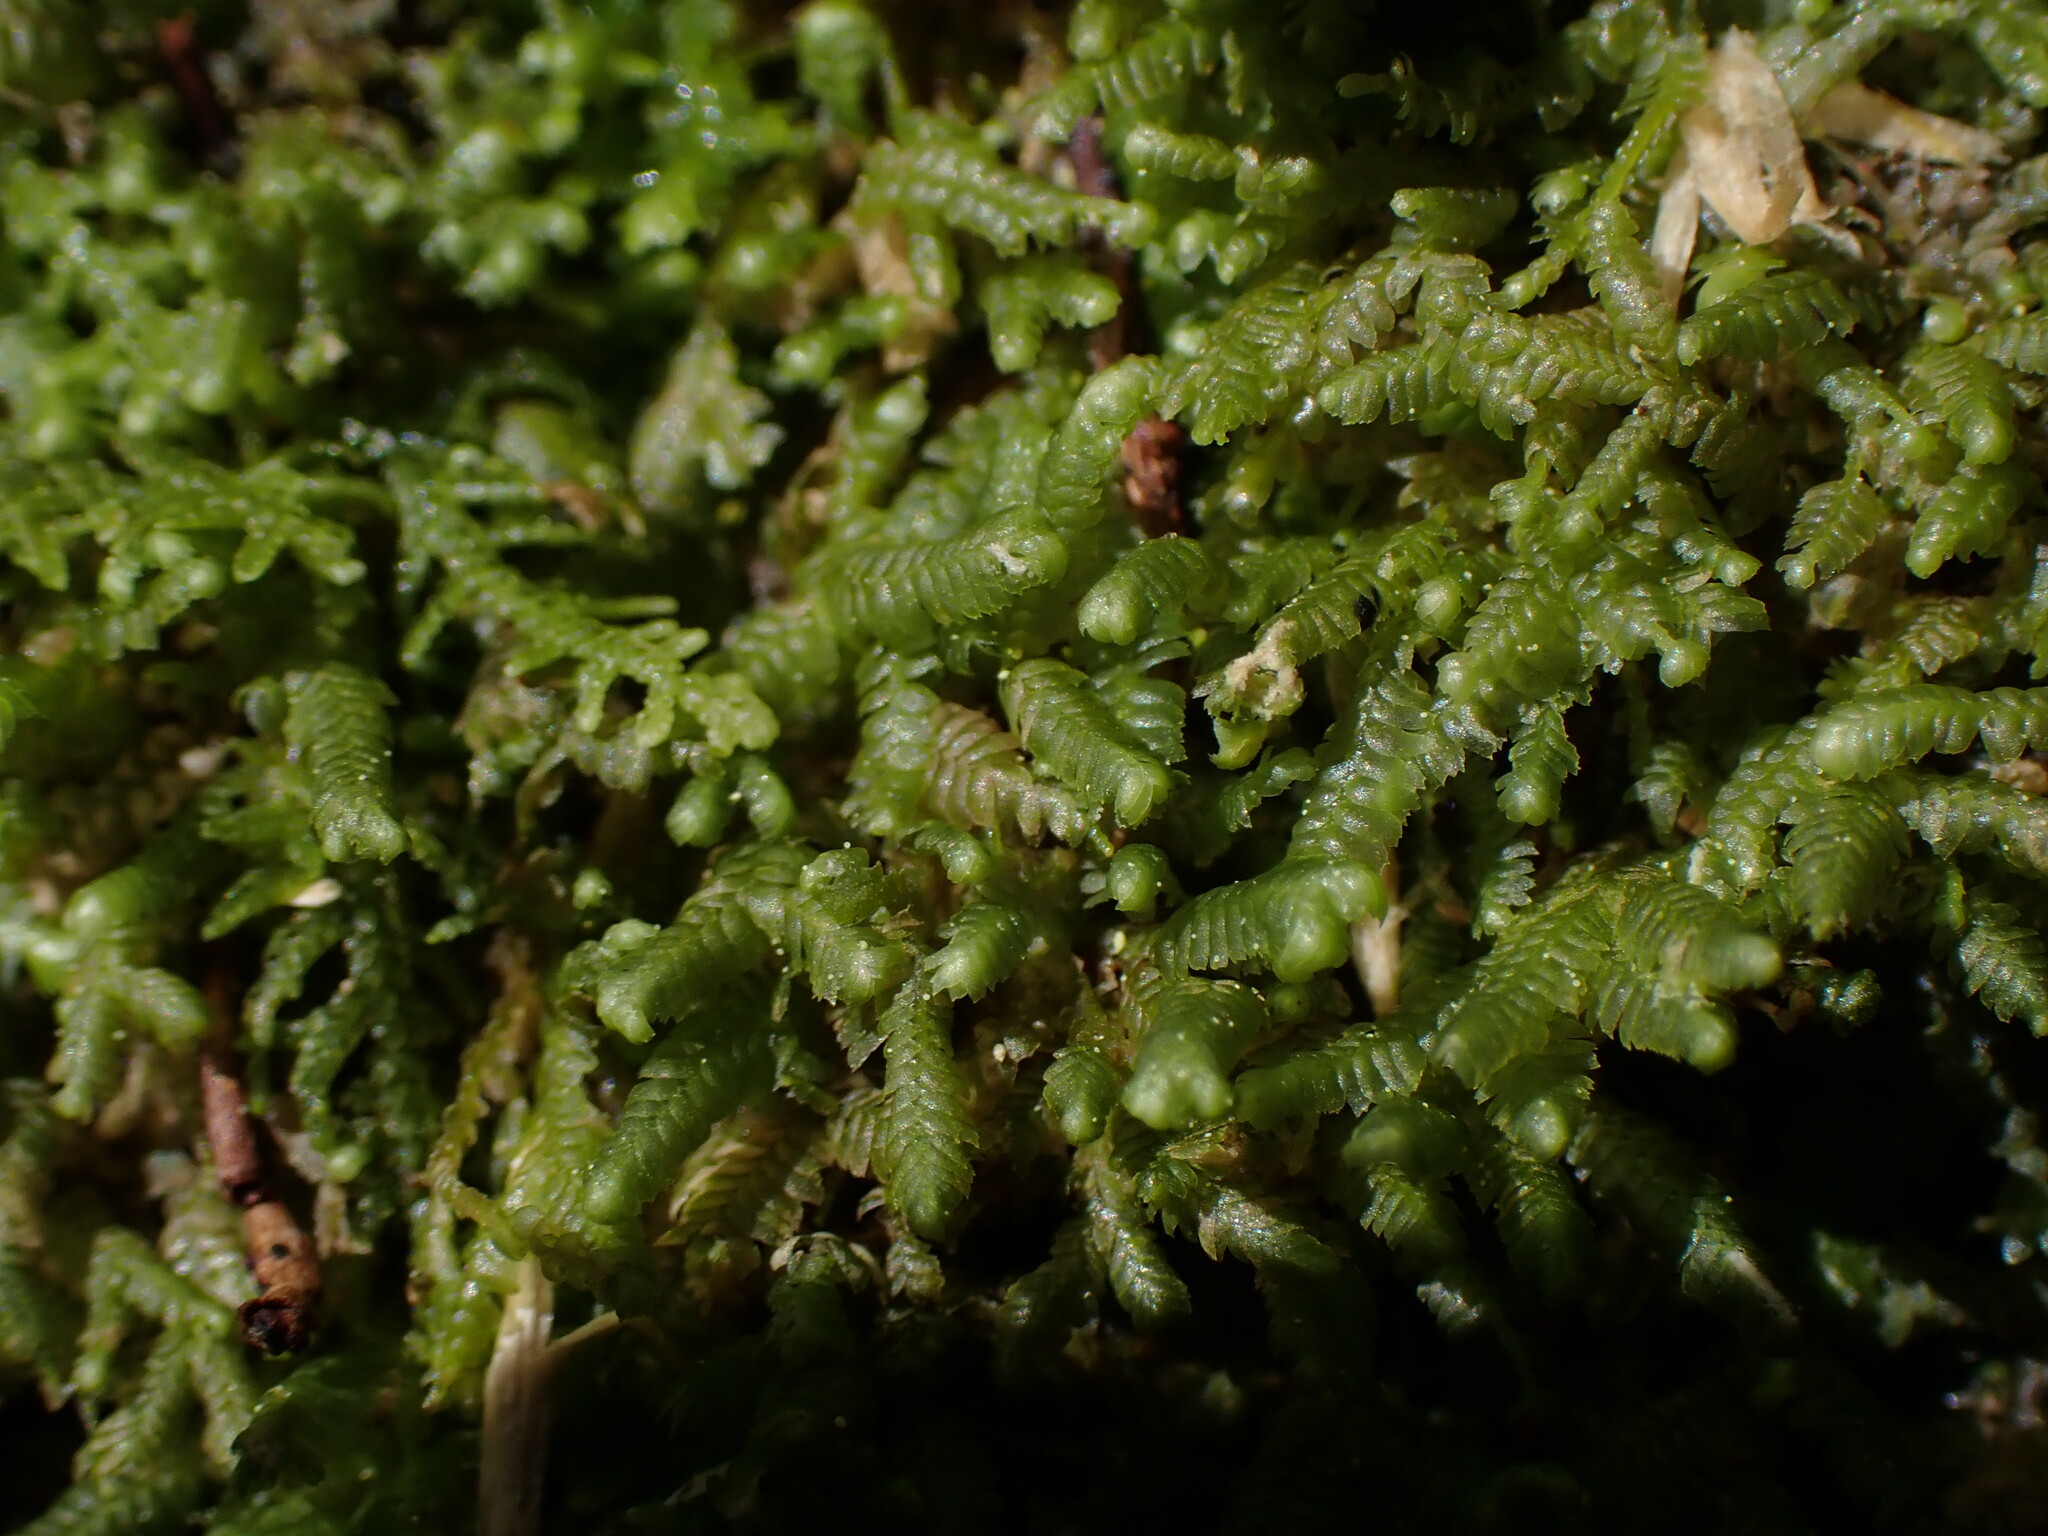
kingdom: Plantae
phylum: Marchantiophyta
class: Jungermanniopsida
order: Jungermanniales
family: Lepidoziaceae
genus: Bazzania
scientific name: Bazzania denudata
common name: Naked whipwort
